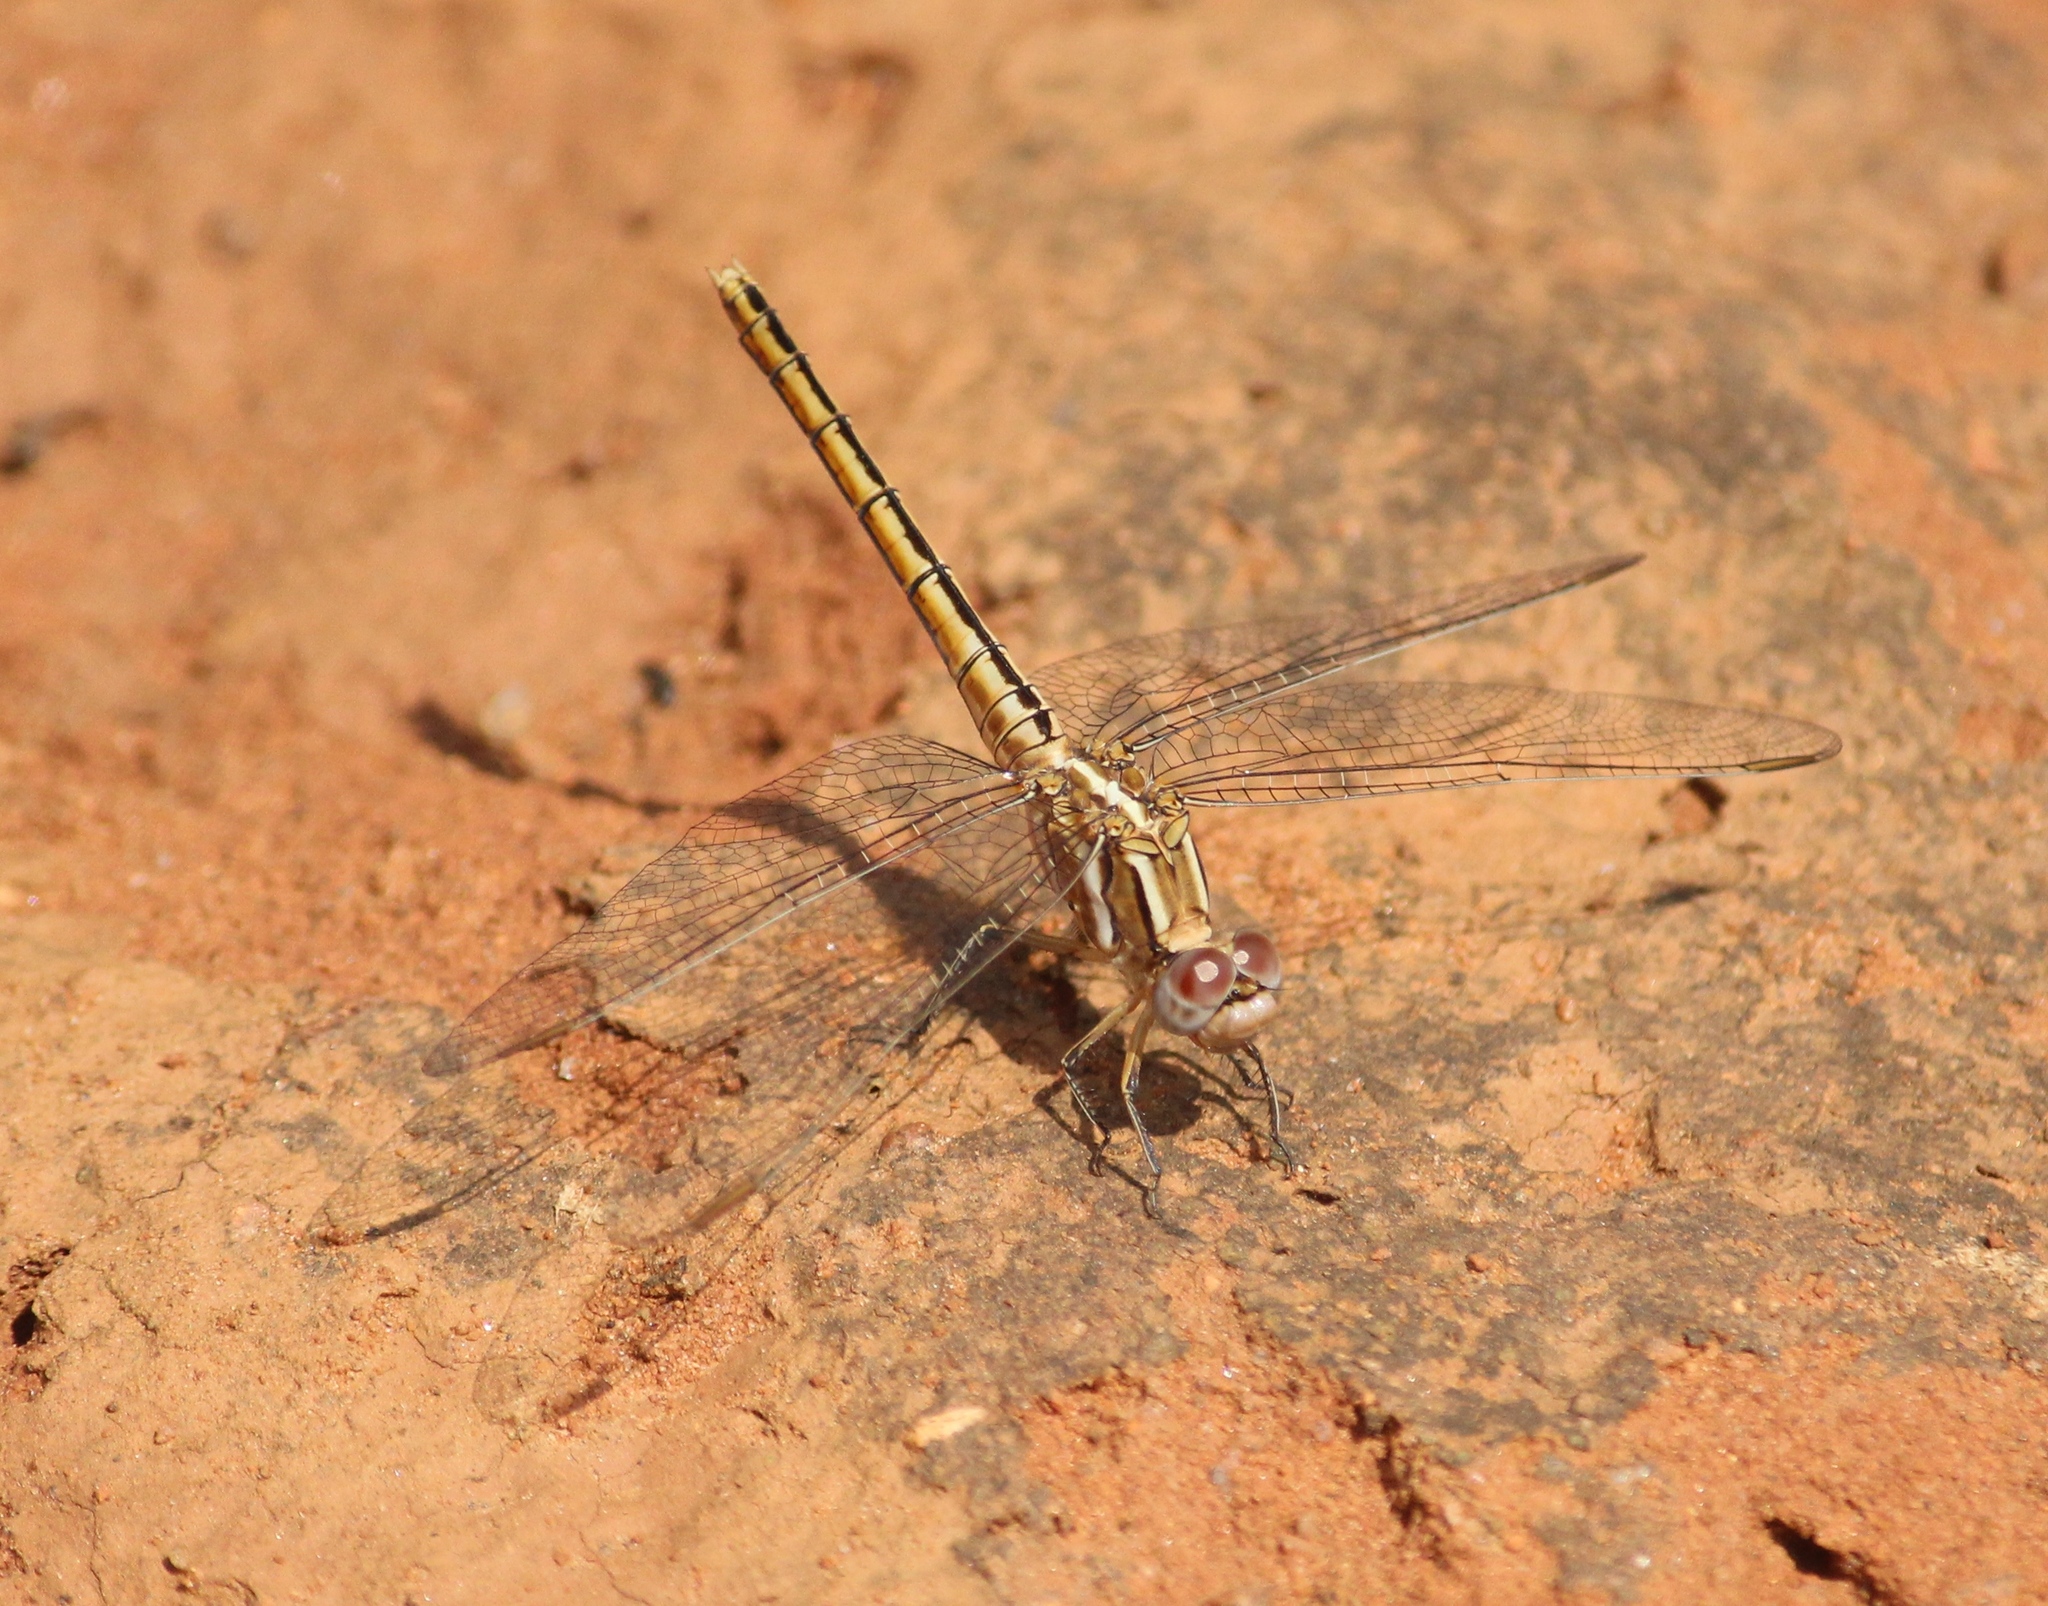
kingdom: Animalia
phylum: Arthropoda
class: Insecta
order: Odonata
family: Libellulidae
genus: Brachythemis
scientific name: Brachythemis contaminata
